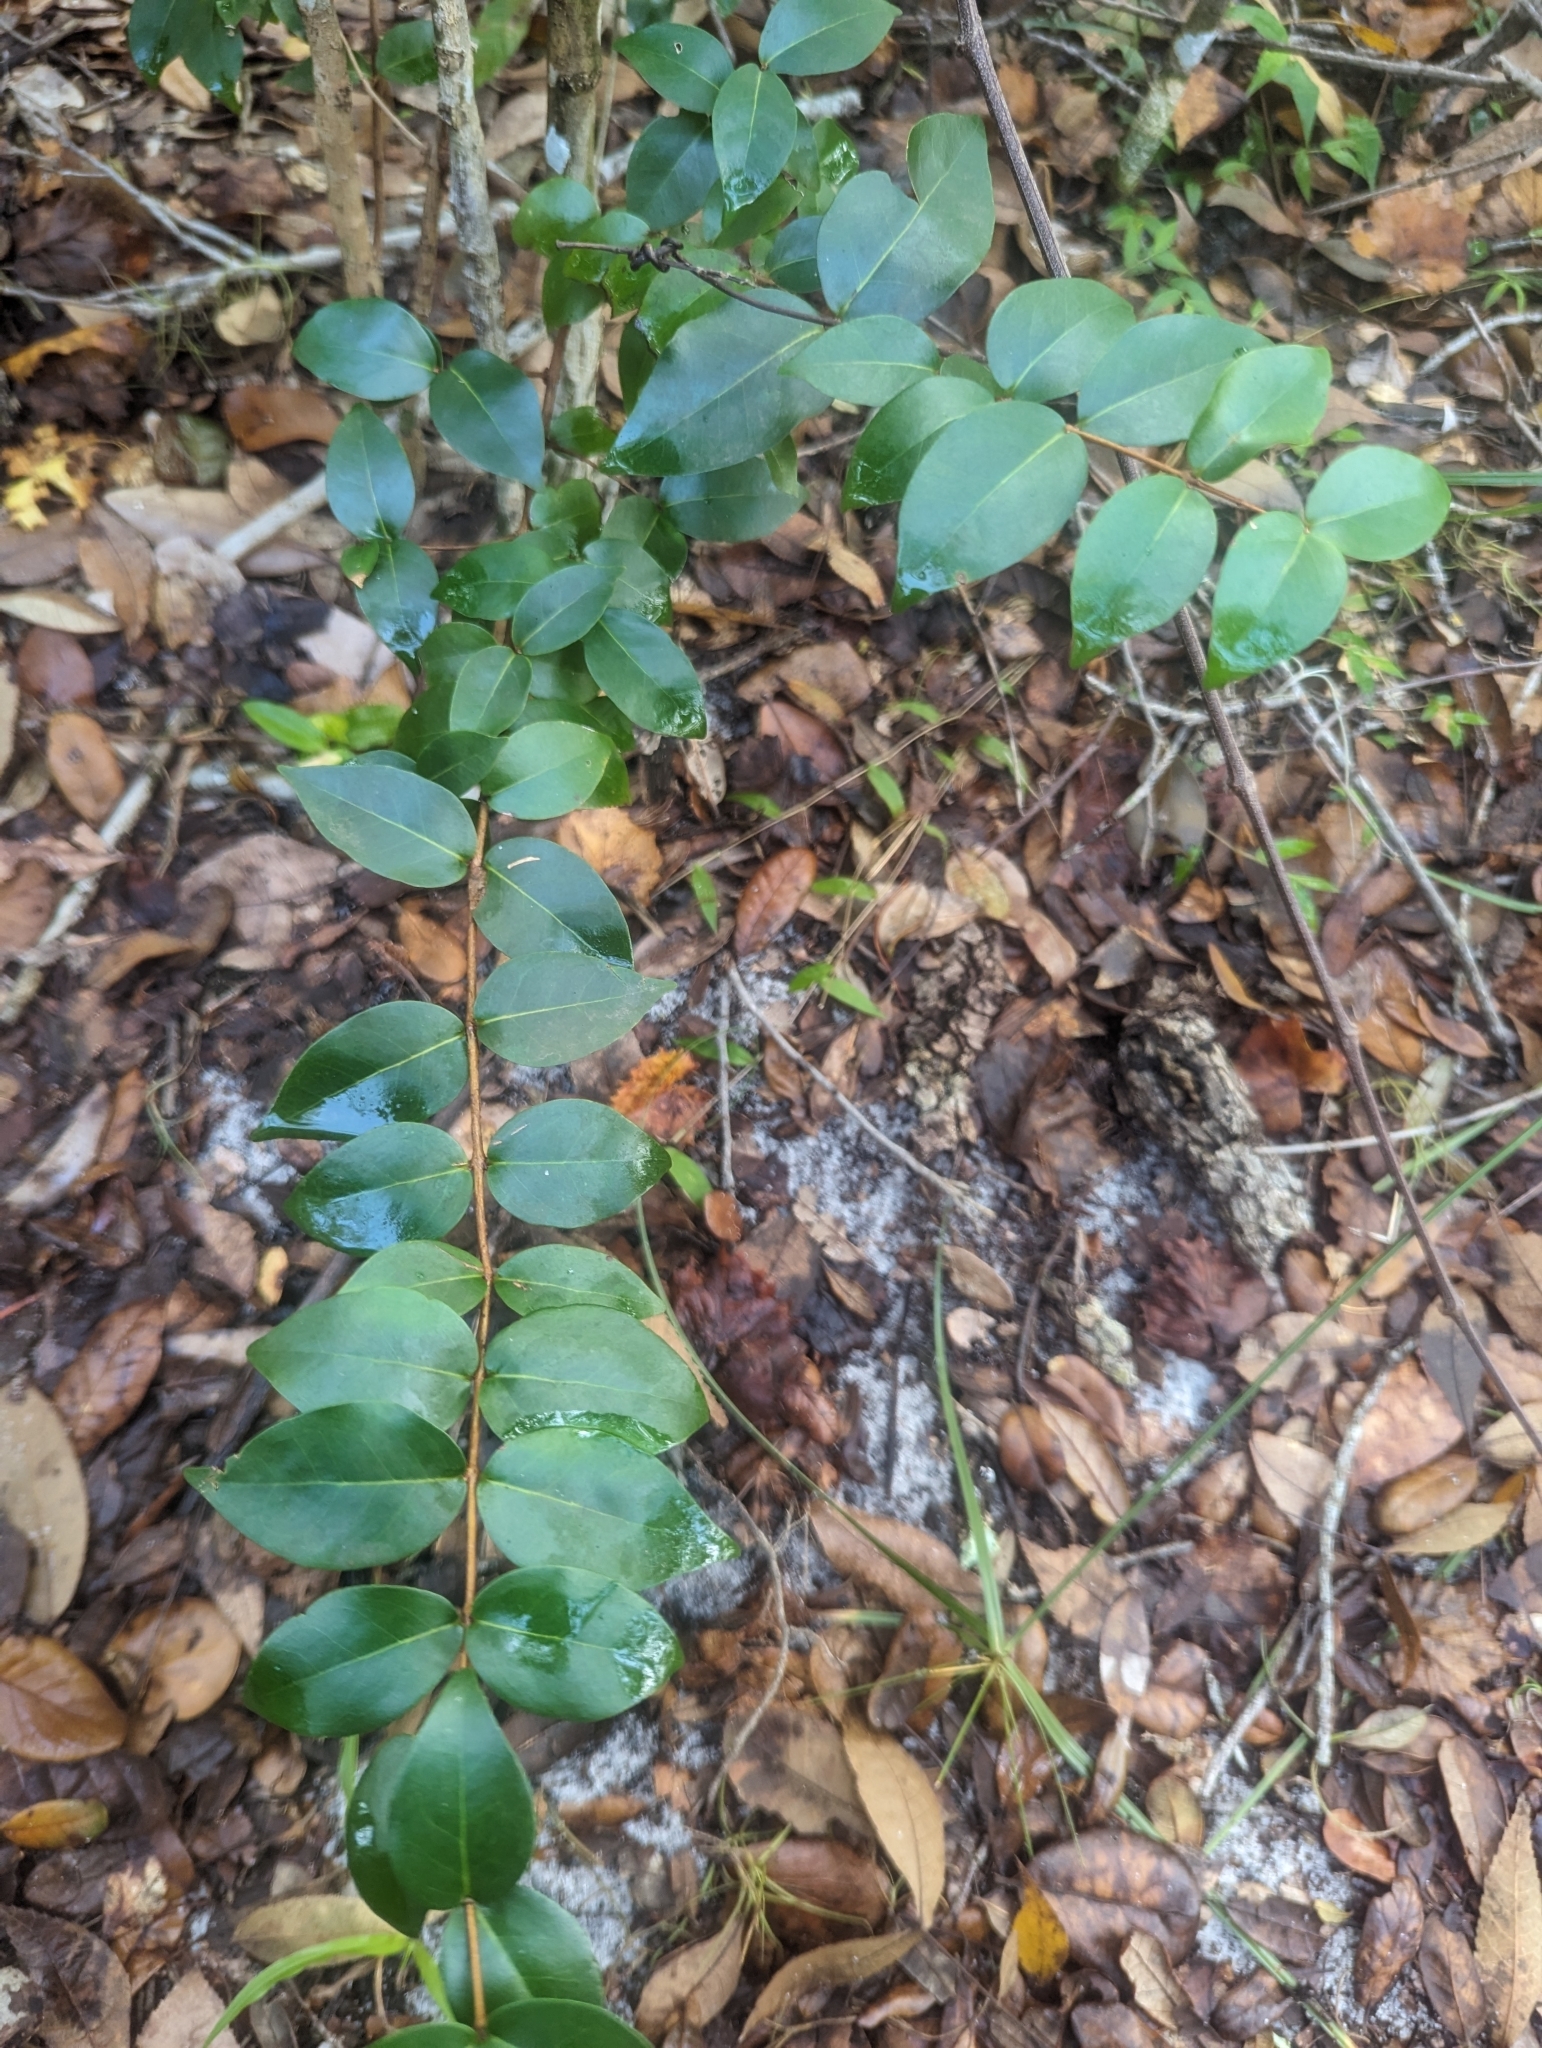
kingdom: Plantae
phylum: Tracheophyta
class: Magnoliopsida
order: Myrtales
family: Myrtaceae
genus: Eugenia
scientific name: Eugenia uniflora
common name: Surinam cherry
